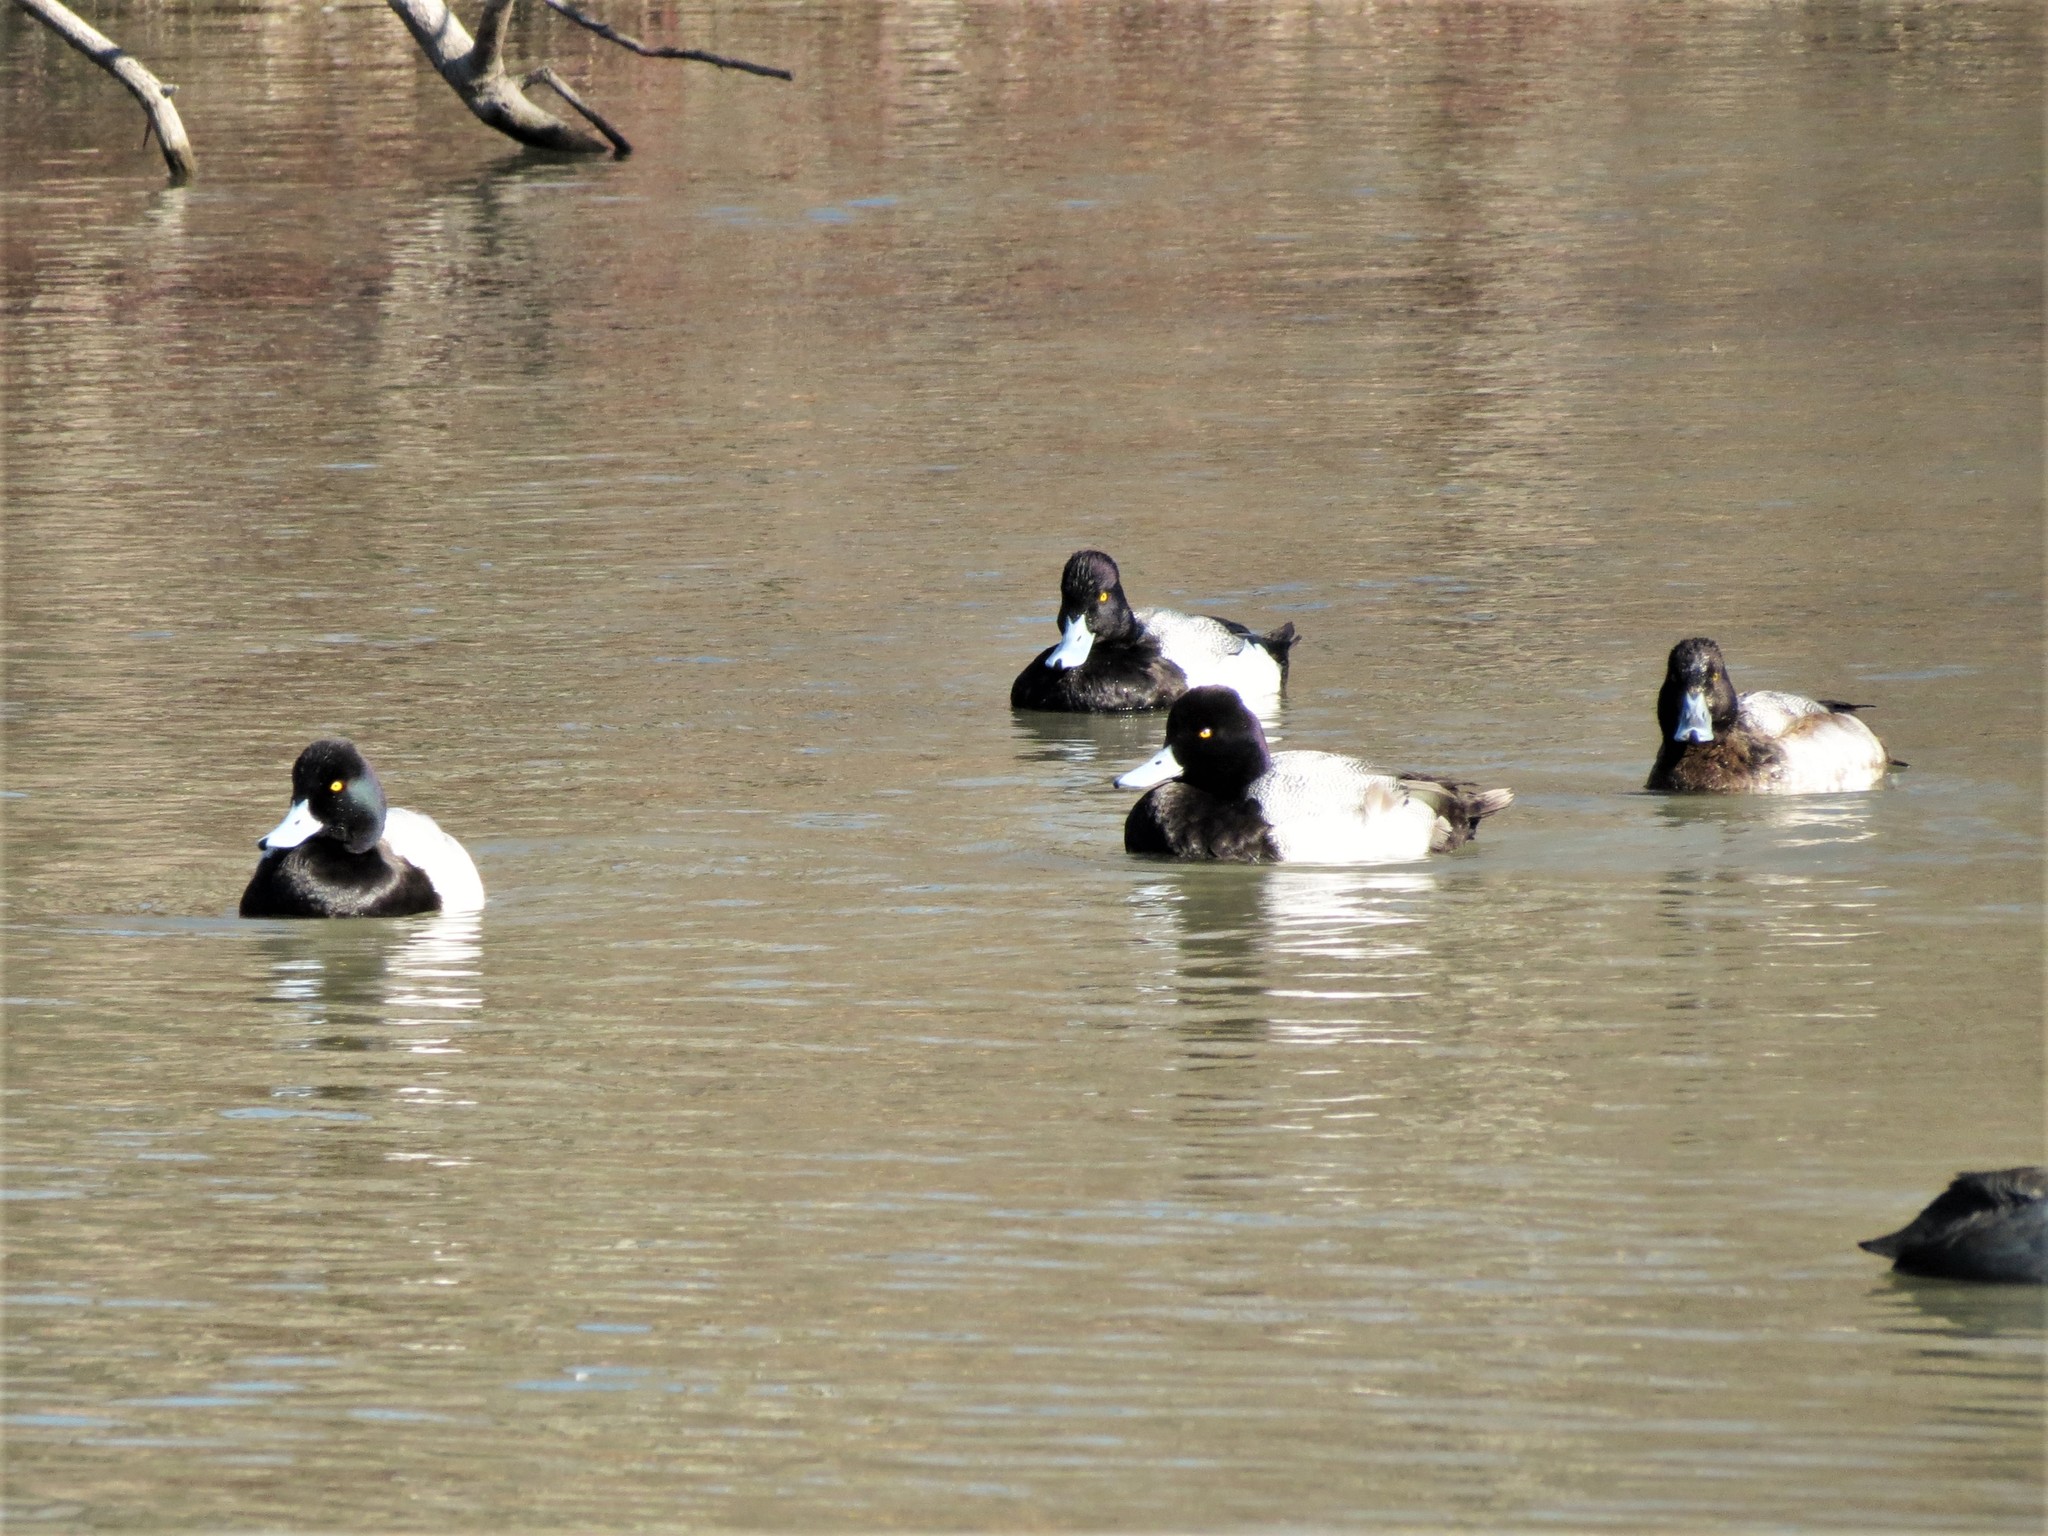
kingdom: Animalia
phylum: Chordata
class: Aves
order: Anseriformes
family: Anatidae
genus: Aythya
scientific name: Aythya affinis
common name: Lesser scaup
